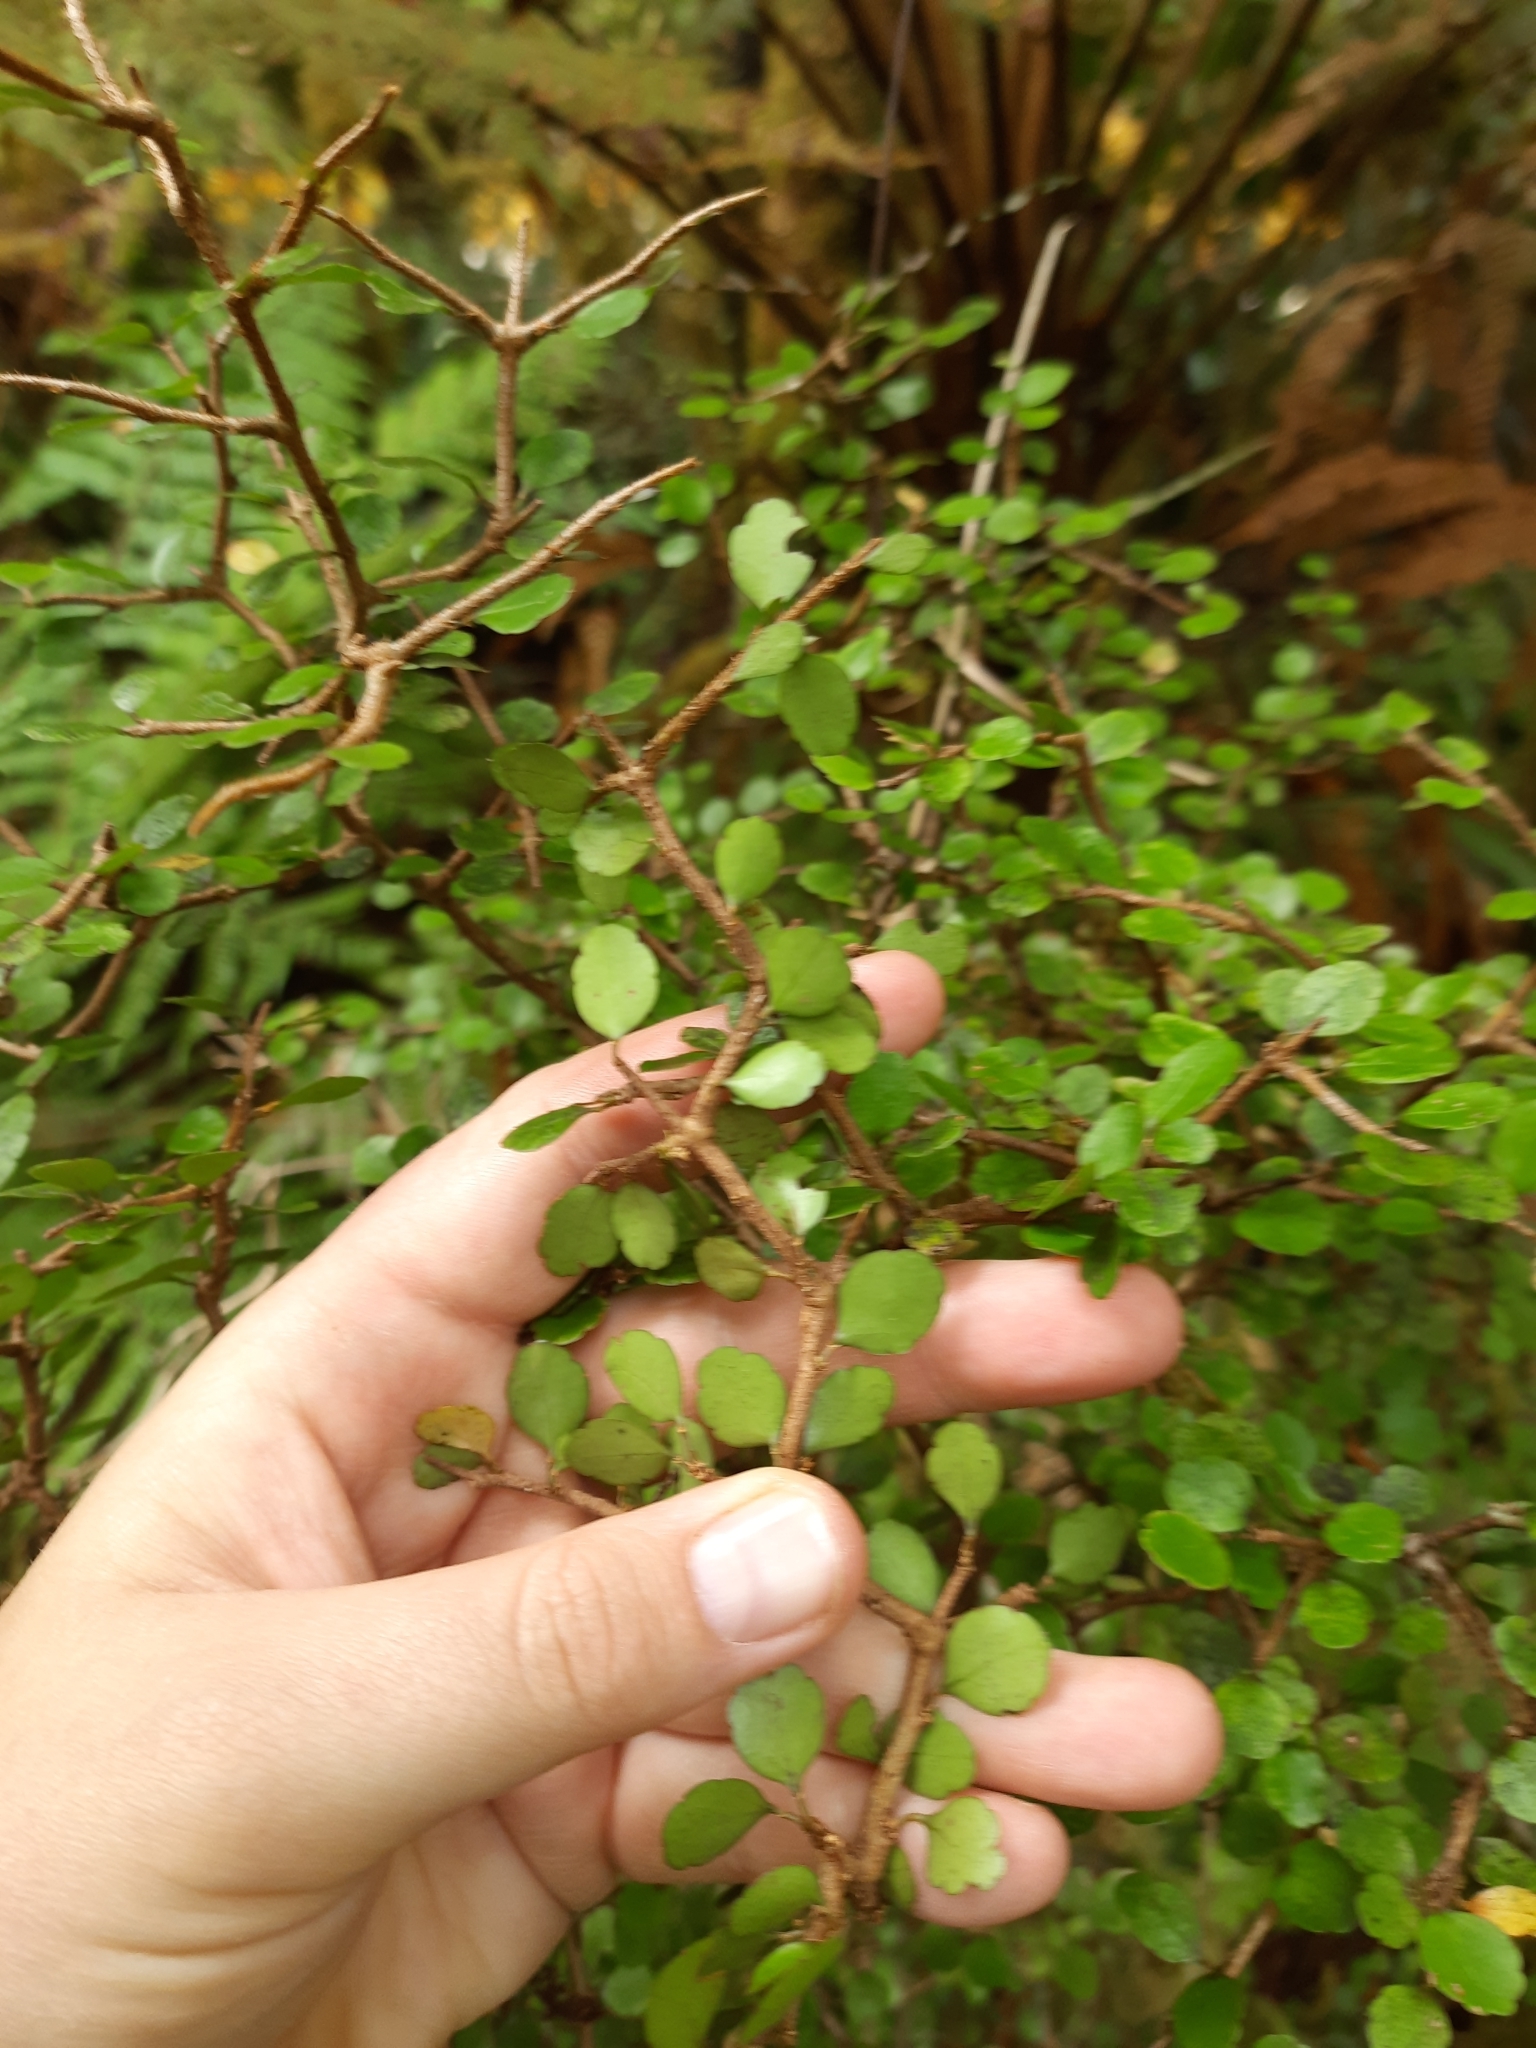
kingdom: Plantae
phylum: Tracheophyta
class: Magnoliopsida
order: Ericales
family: Primulaceae
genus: Myrsine
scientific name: Myrsine divaricata
